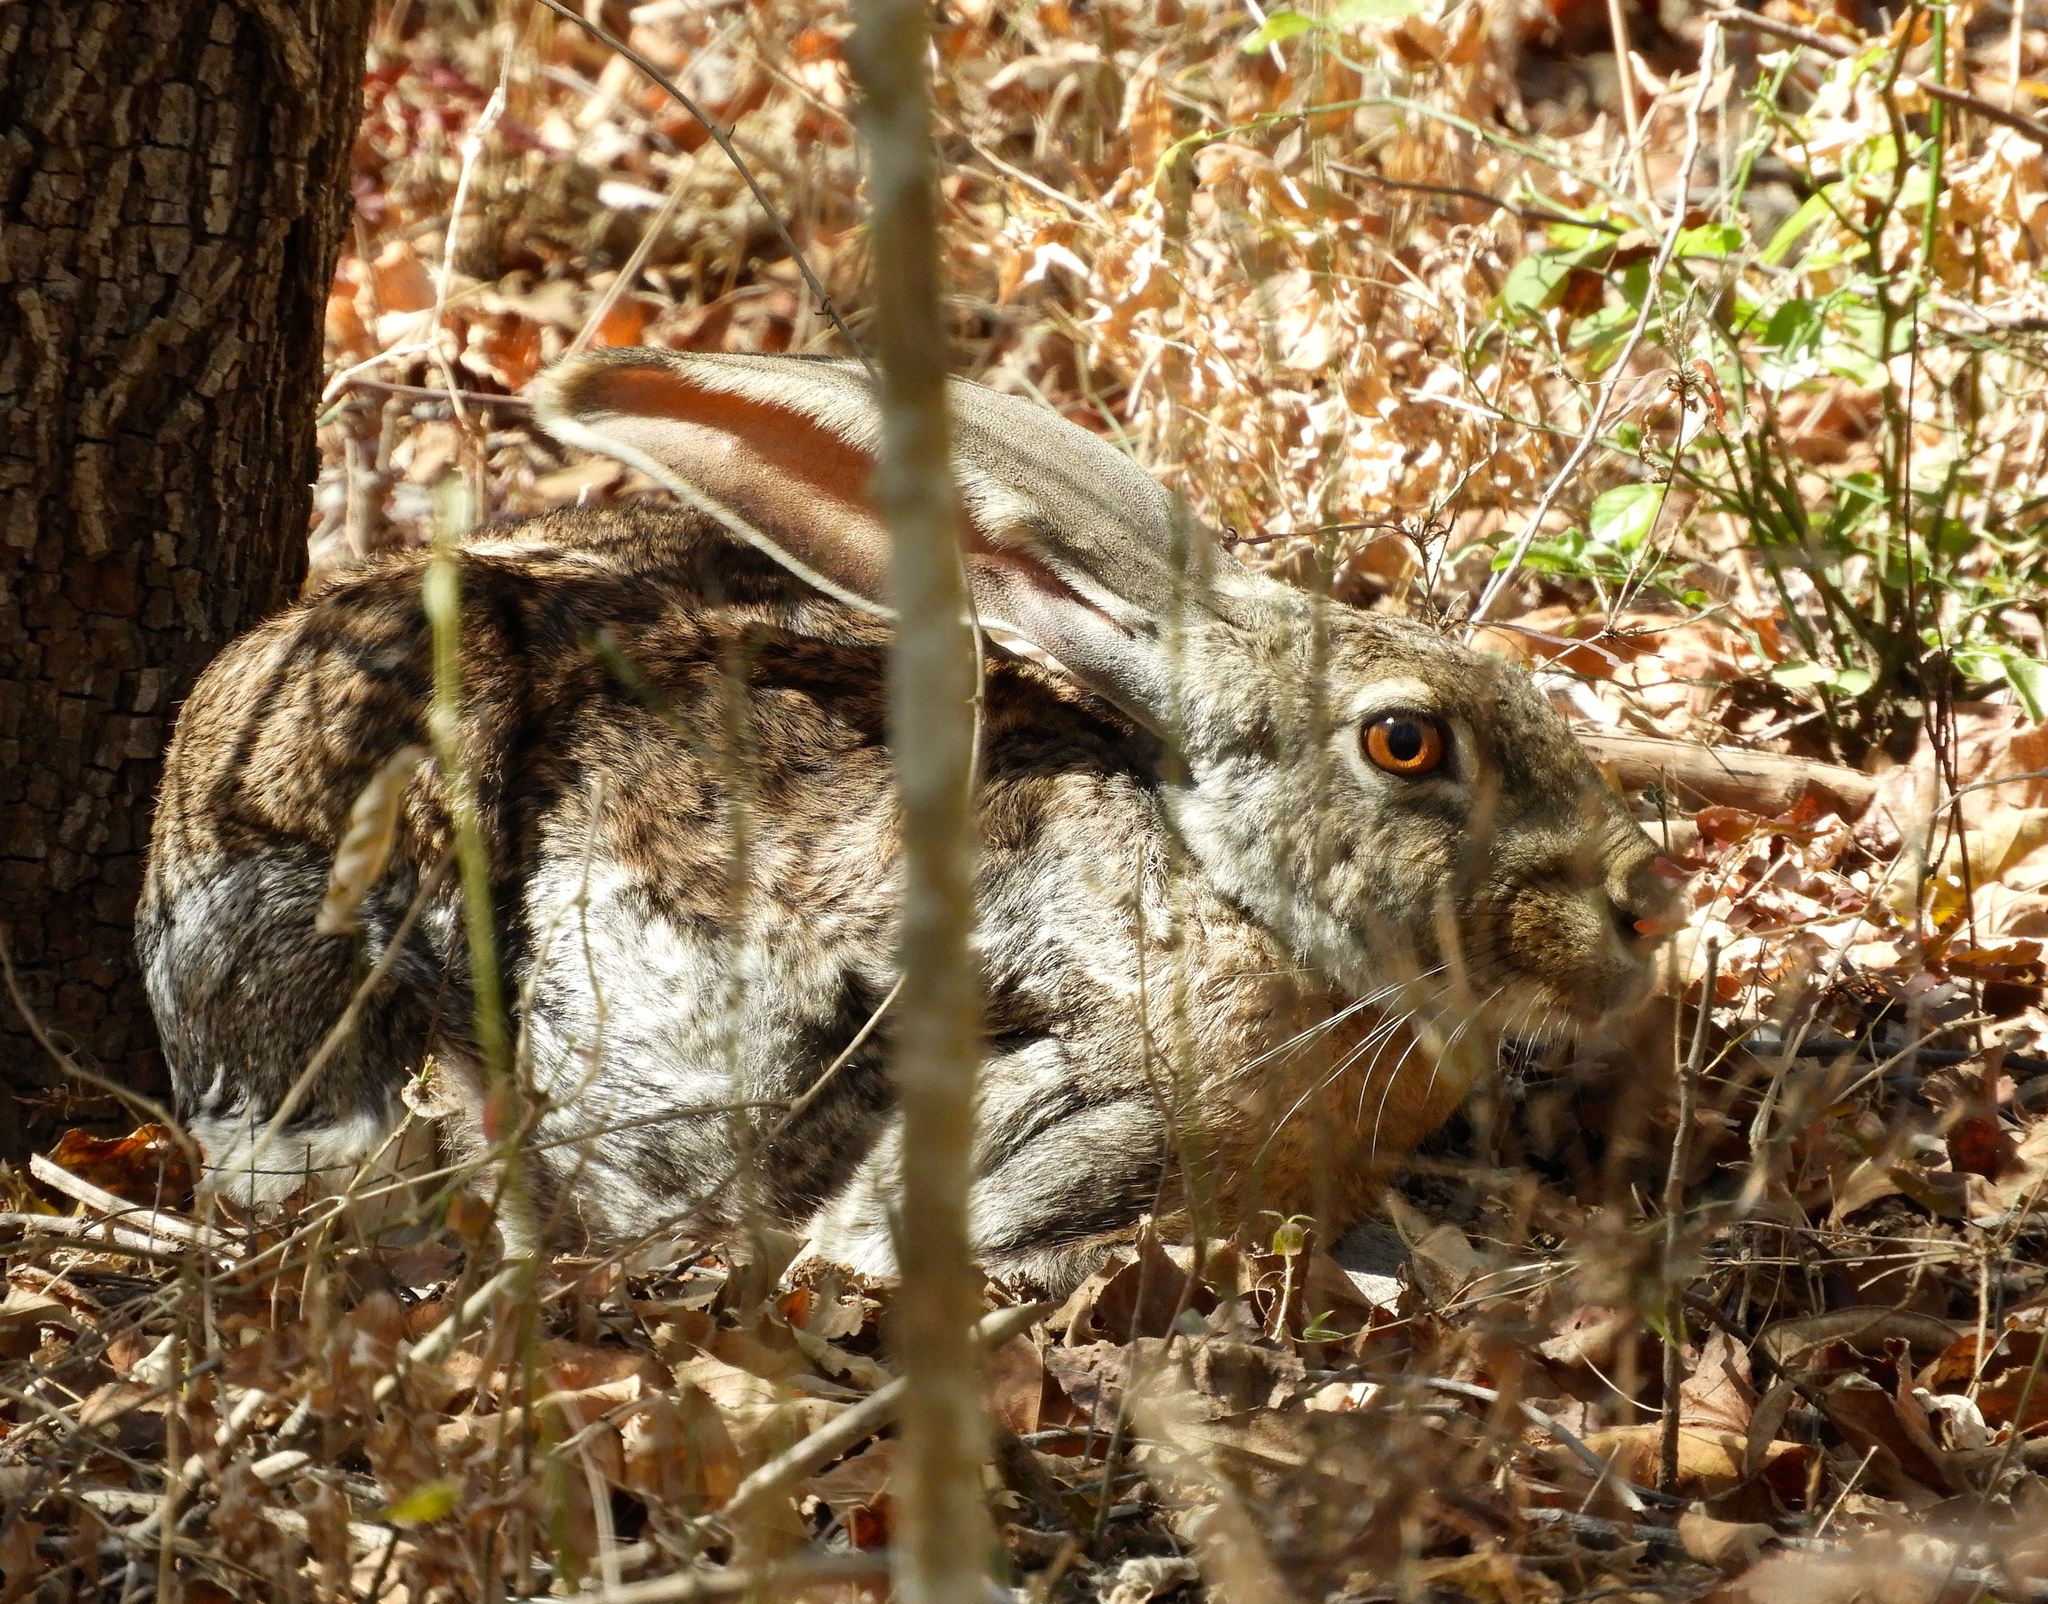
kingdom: Animalia
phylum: Chordata
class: Mammalia
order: Lagomorpha
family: Leporidae
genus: Lepus
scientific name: Lepus alleni
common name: Antelope jackrabbit
